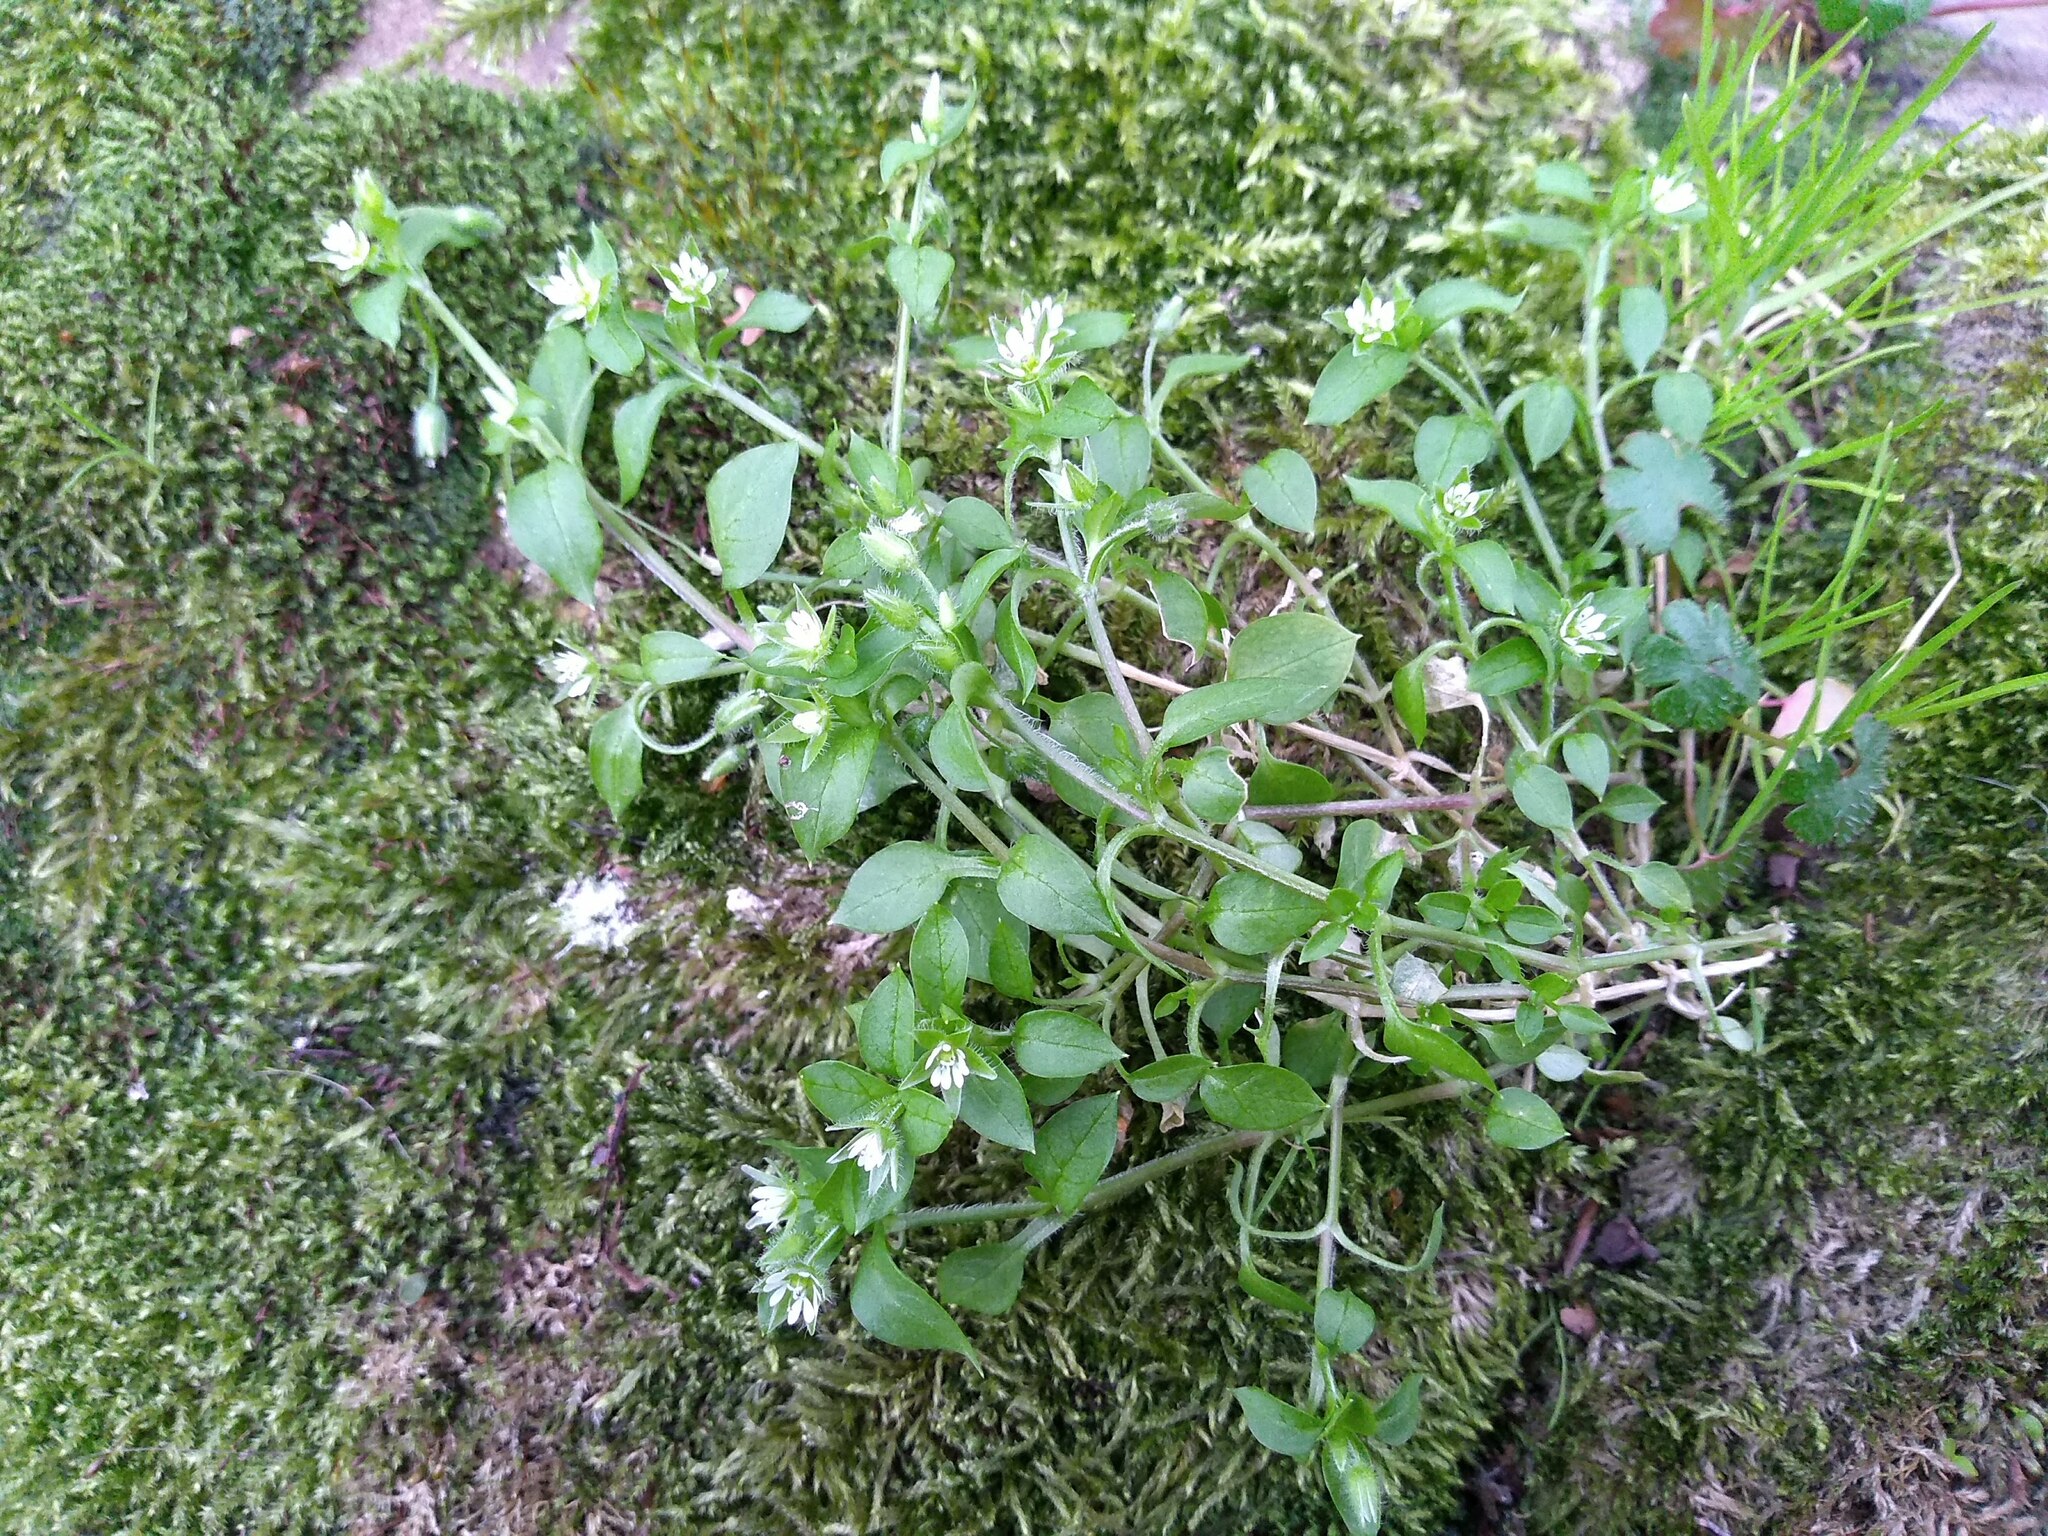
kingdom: Plantae
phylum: Tracheophyta
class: Magnoliopsida
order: Caryophyllales
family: Caryophyllaceae
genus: Stellaria
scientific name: Stellaria media
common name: Common chickweed
